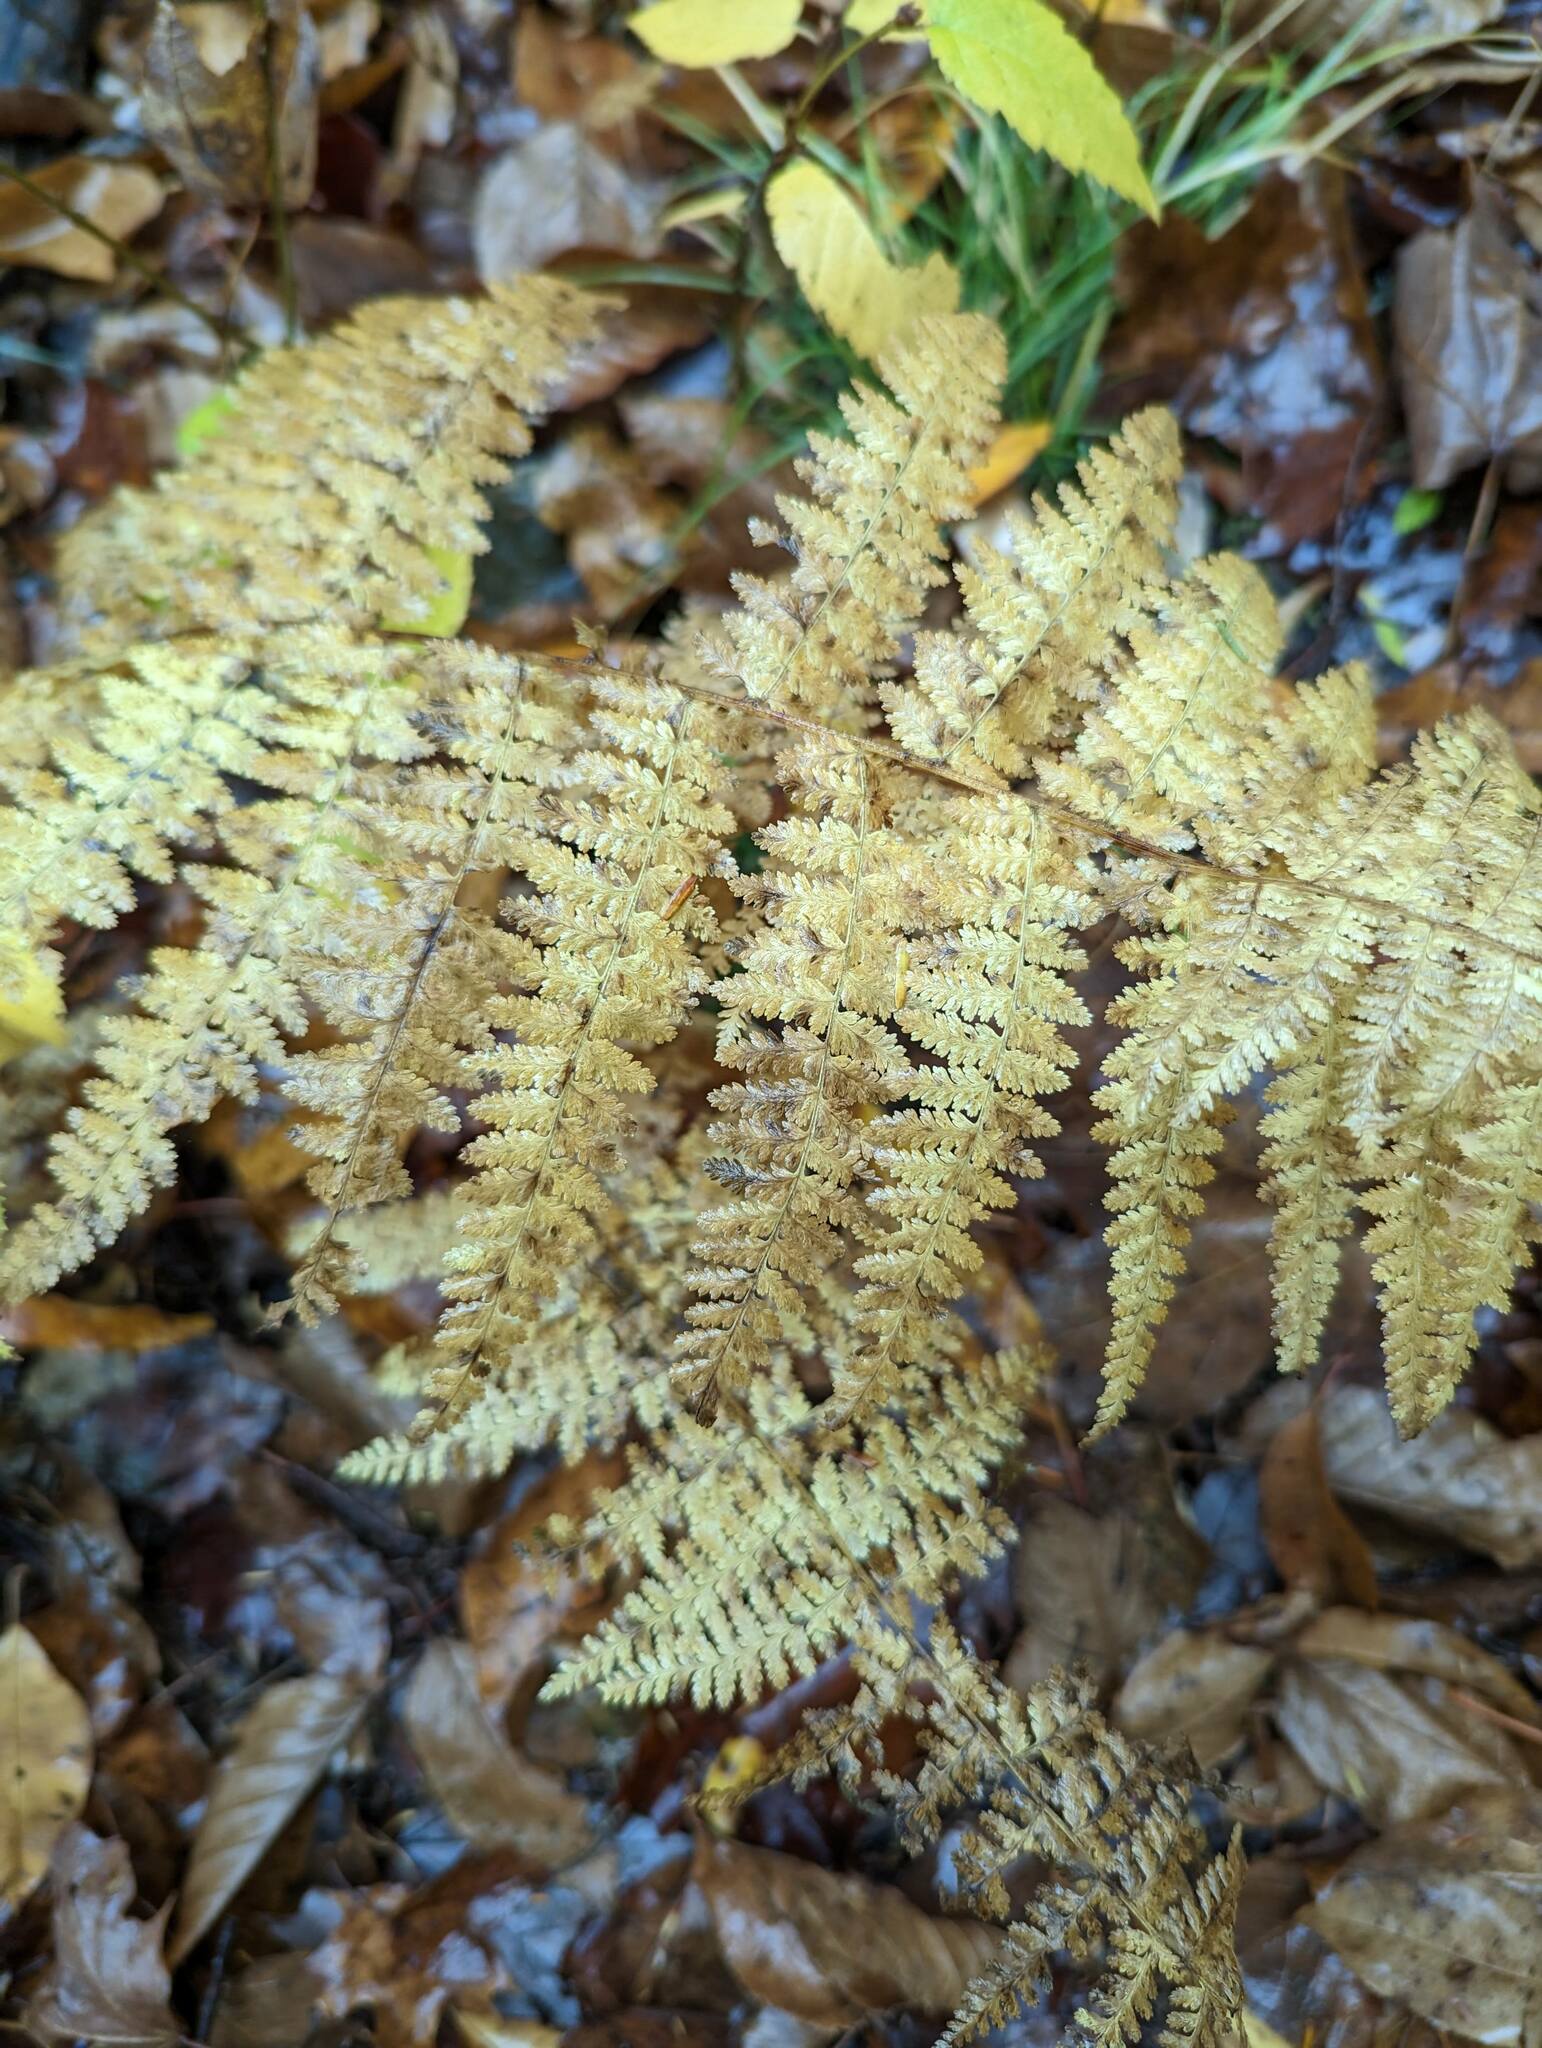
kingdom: Plantae
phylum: Tracheophyta
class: Polypodiopsida
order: Polypodiales
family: Dennstaedtiaceae
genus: Sitobolium
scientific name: Sitobolium punctilobum
